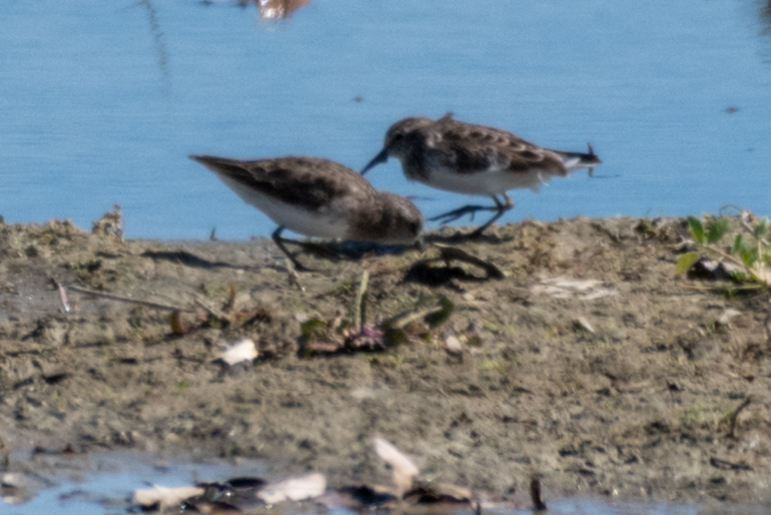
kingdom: Animalia
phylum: Chordata
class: Aves
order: Charadriiformes
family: Scolopacidae
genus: Calidris
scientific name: Calidris minutilla
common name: Least sandpiper
